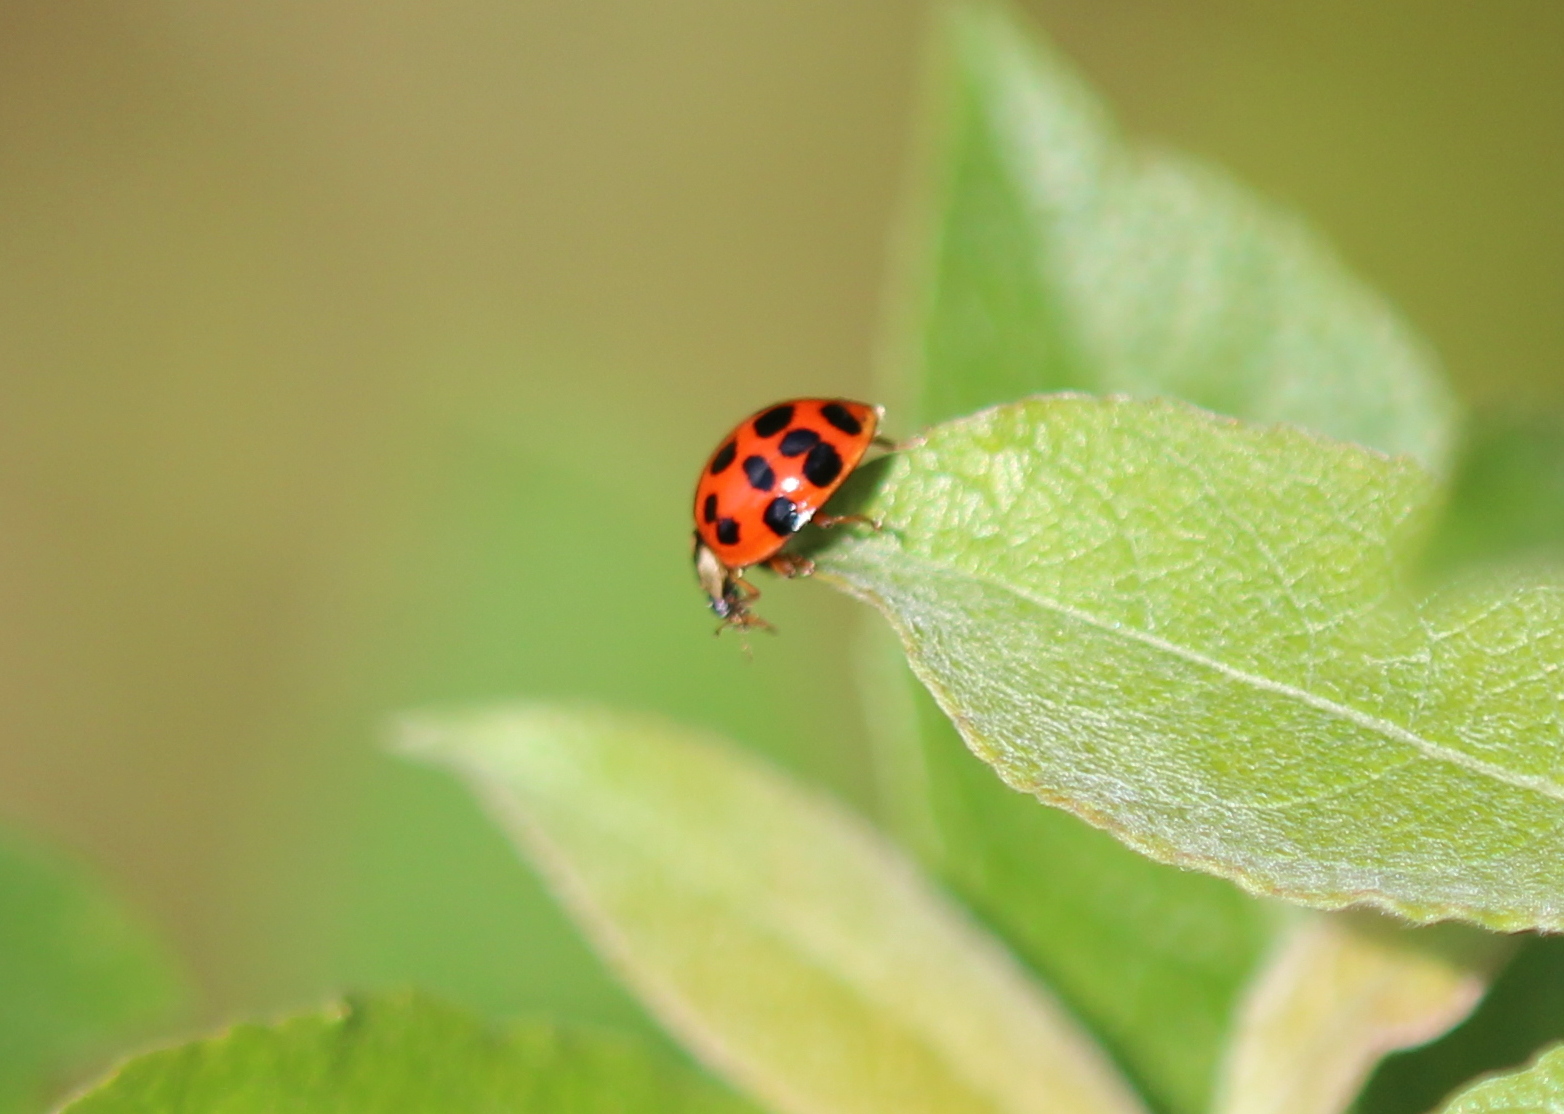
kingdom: Animalia
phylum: Arthropoda
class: Insecta
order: Coleoptera
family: Coccinellidae
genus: Harmonia
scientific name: Harmonia axyridis
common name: Harlequin ladybird
